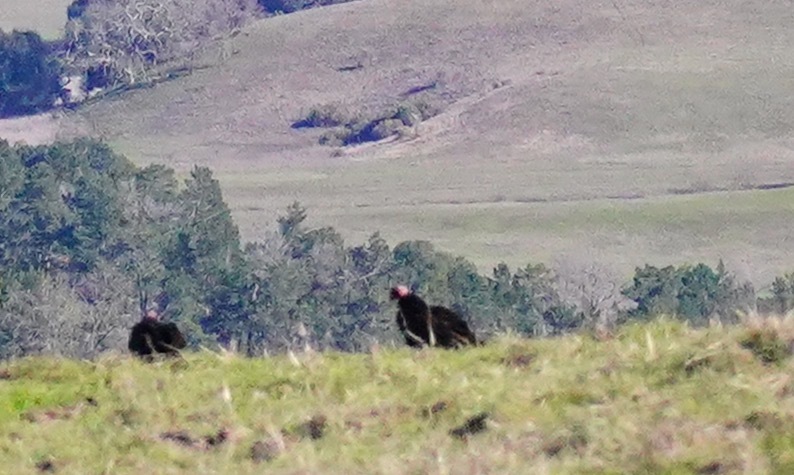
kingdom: Animalia
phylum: Chordata
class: Aves
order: Accipitriformes
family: Cathartidae
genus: Cathartes
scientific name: Cathartes aura
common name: Turkey vulture
